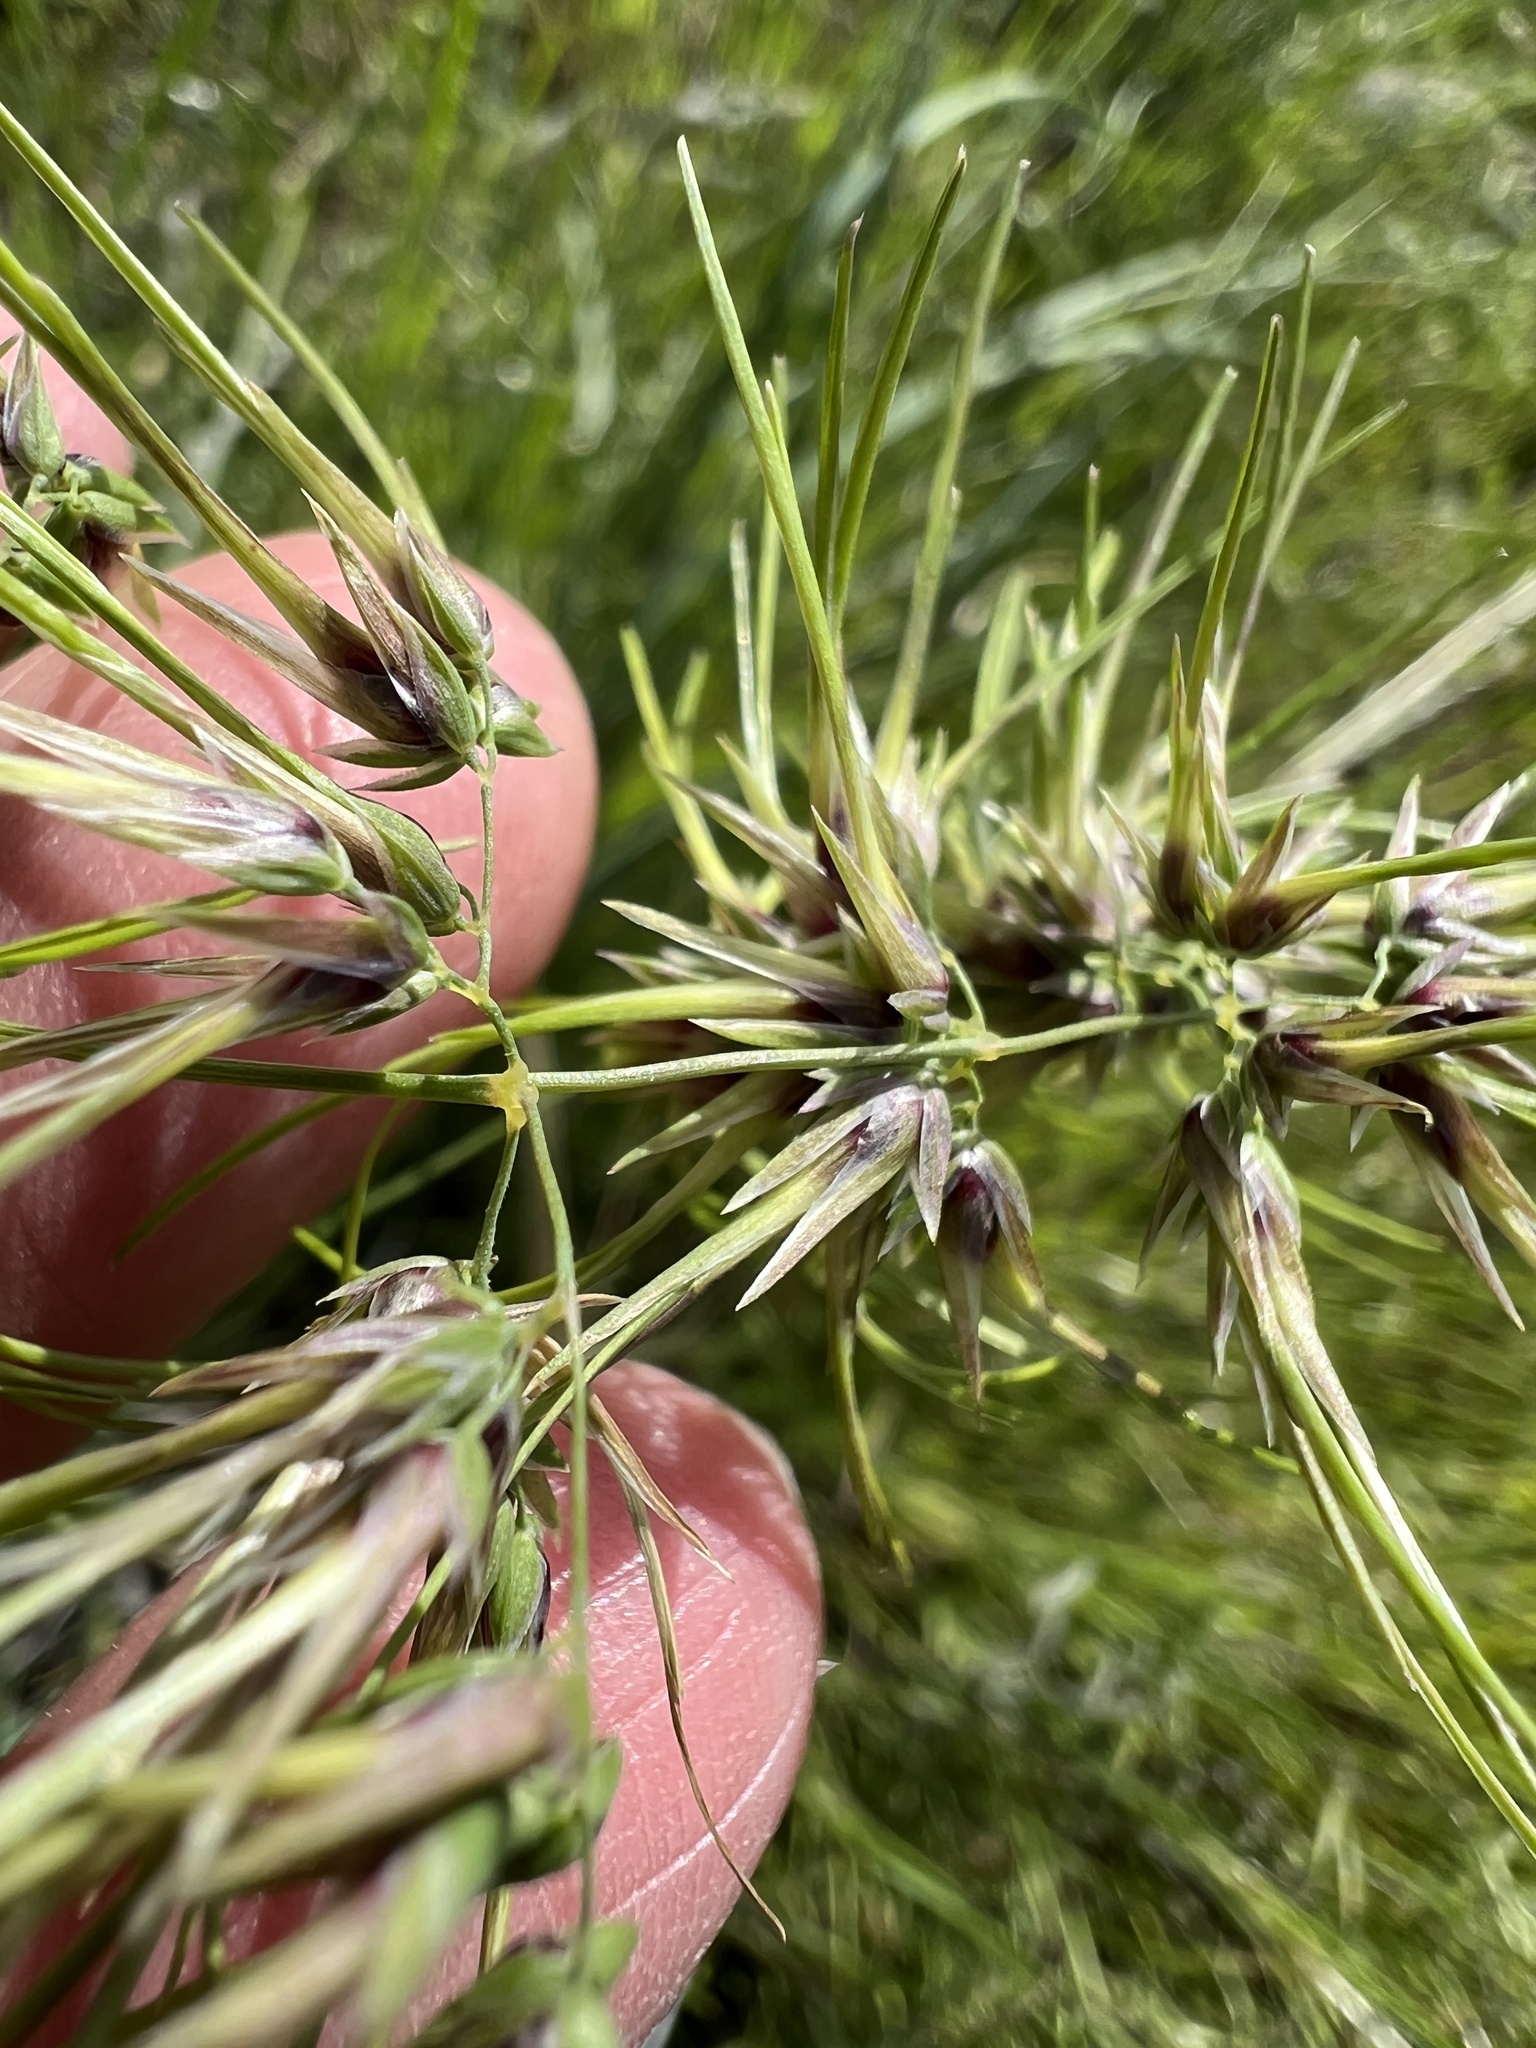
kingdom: Plantae
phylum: Tracheophyta
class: Liliopsida
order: Poales
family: Poaceae
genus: Poa
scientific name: Poa bulbosa
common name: Bulbous bluegrass
